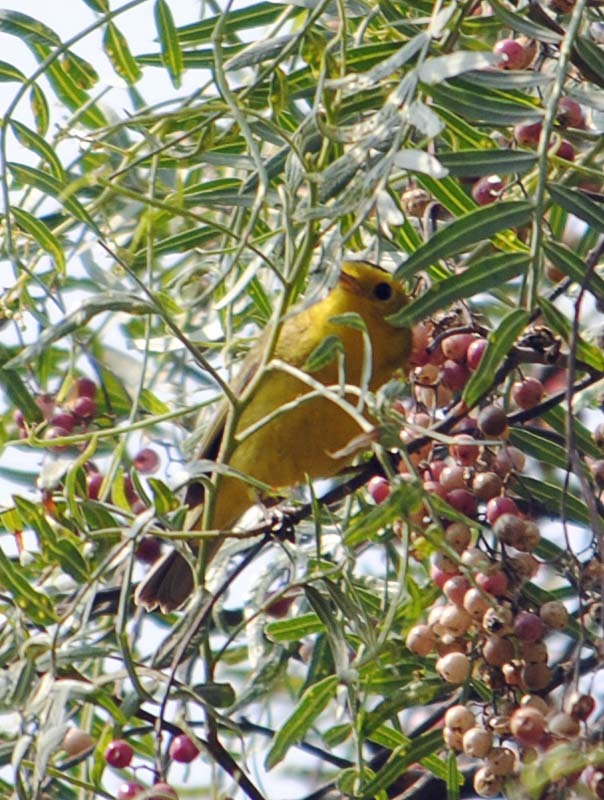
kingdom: Animalia
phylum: Chordata
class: Aves
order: Passeriformes
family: Parulidae
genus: Cardellina
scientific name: Cardellina pusilla
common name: Wilson's warbler
